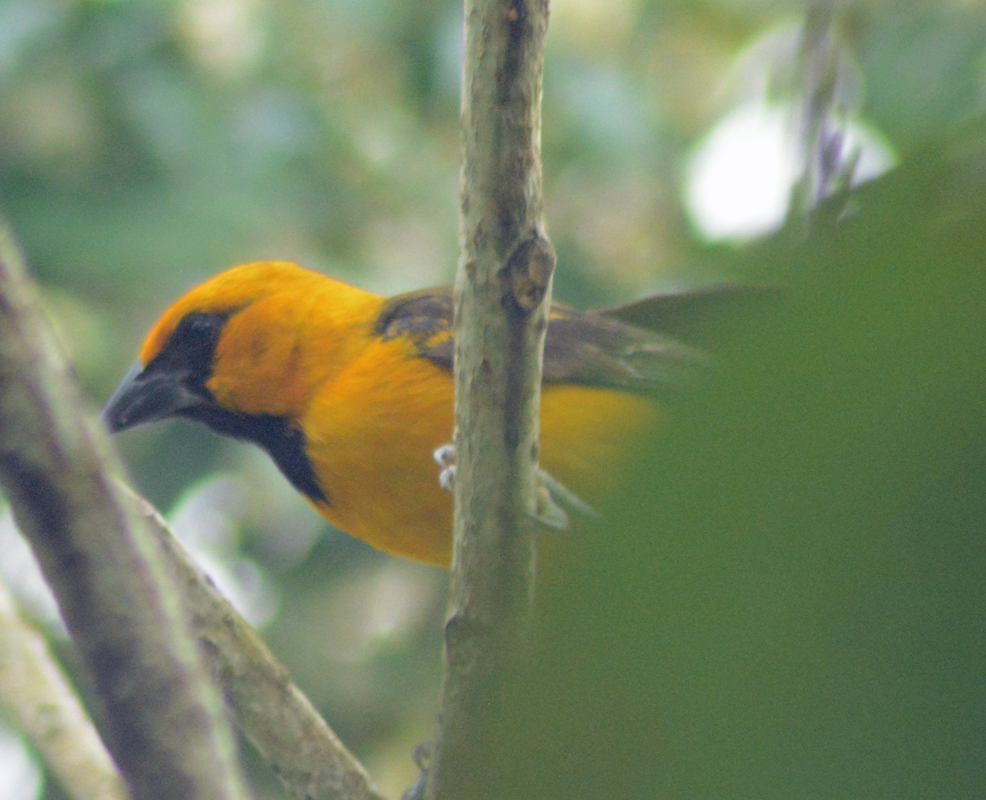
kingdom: Animalia
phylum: Chordata
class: Aves
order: Passeriformes
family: Icteridae
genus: Icterus
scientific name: Icterus gularis
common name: Altamira oriole
